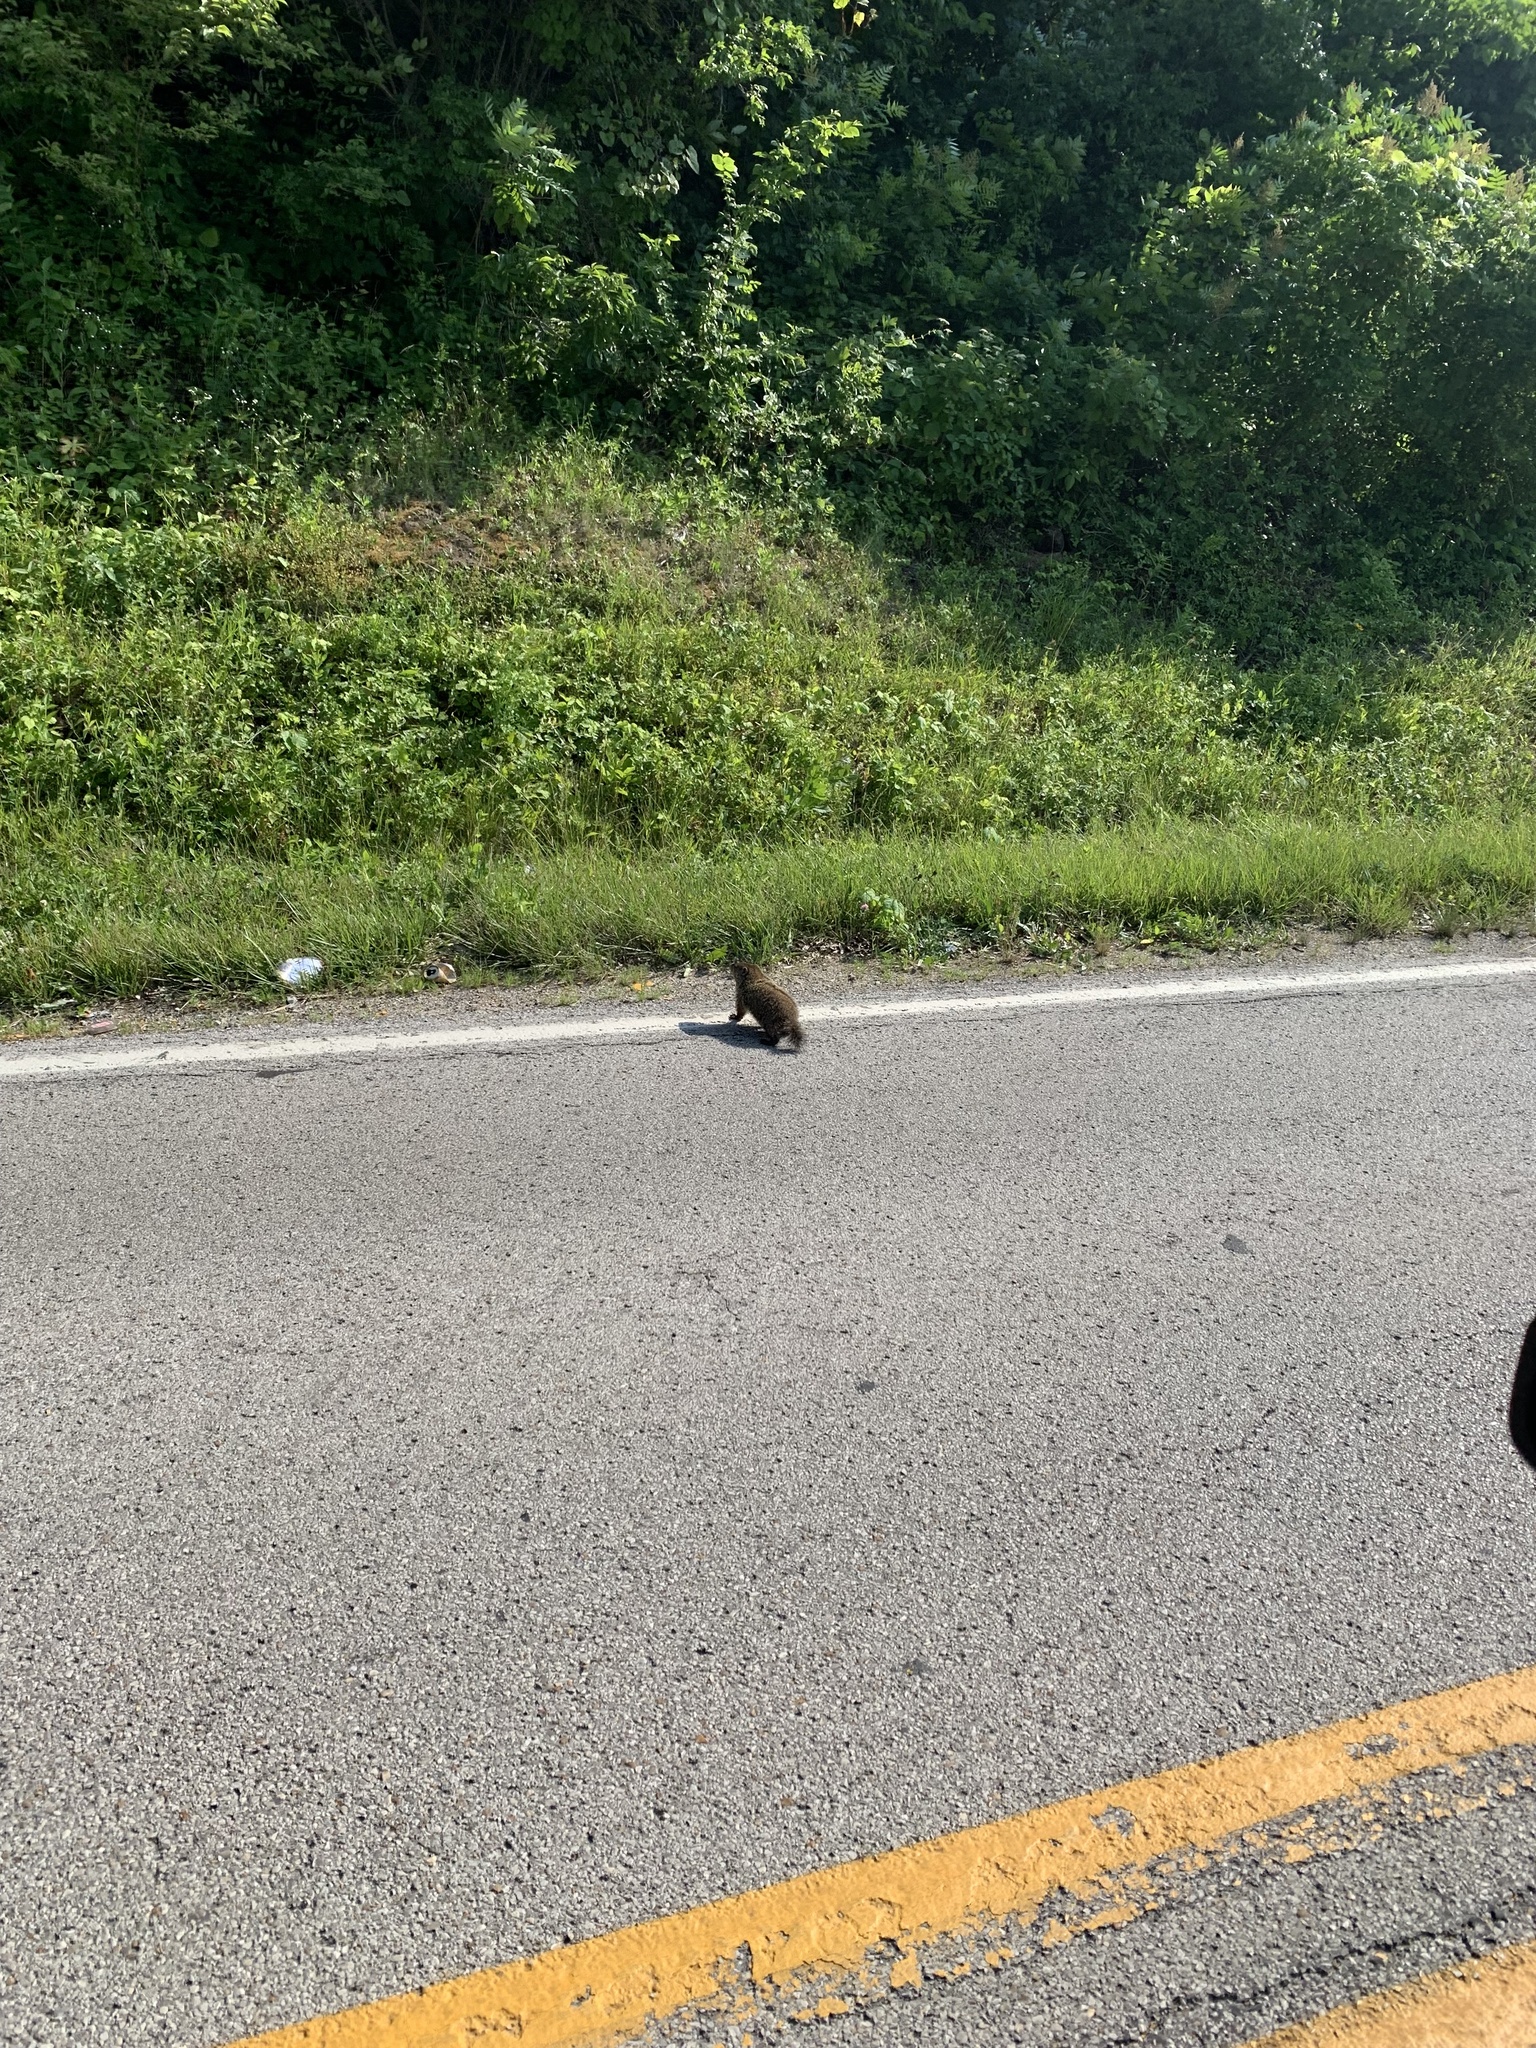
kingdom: Animalia
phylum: Chordata
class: Mammalia
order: Rodentia
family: Sciuridae
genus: Marmota
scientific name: Marmota monax
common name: Groundhog
